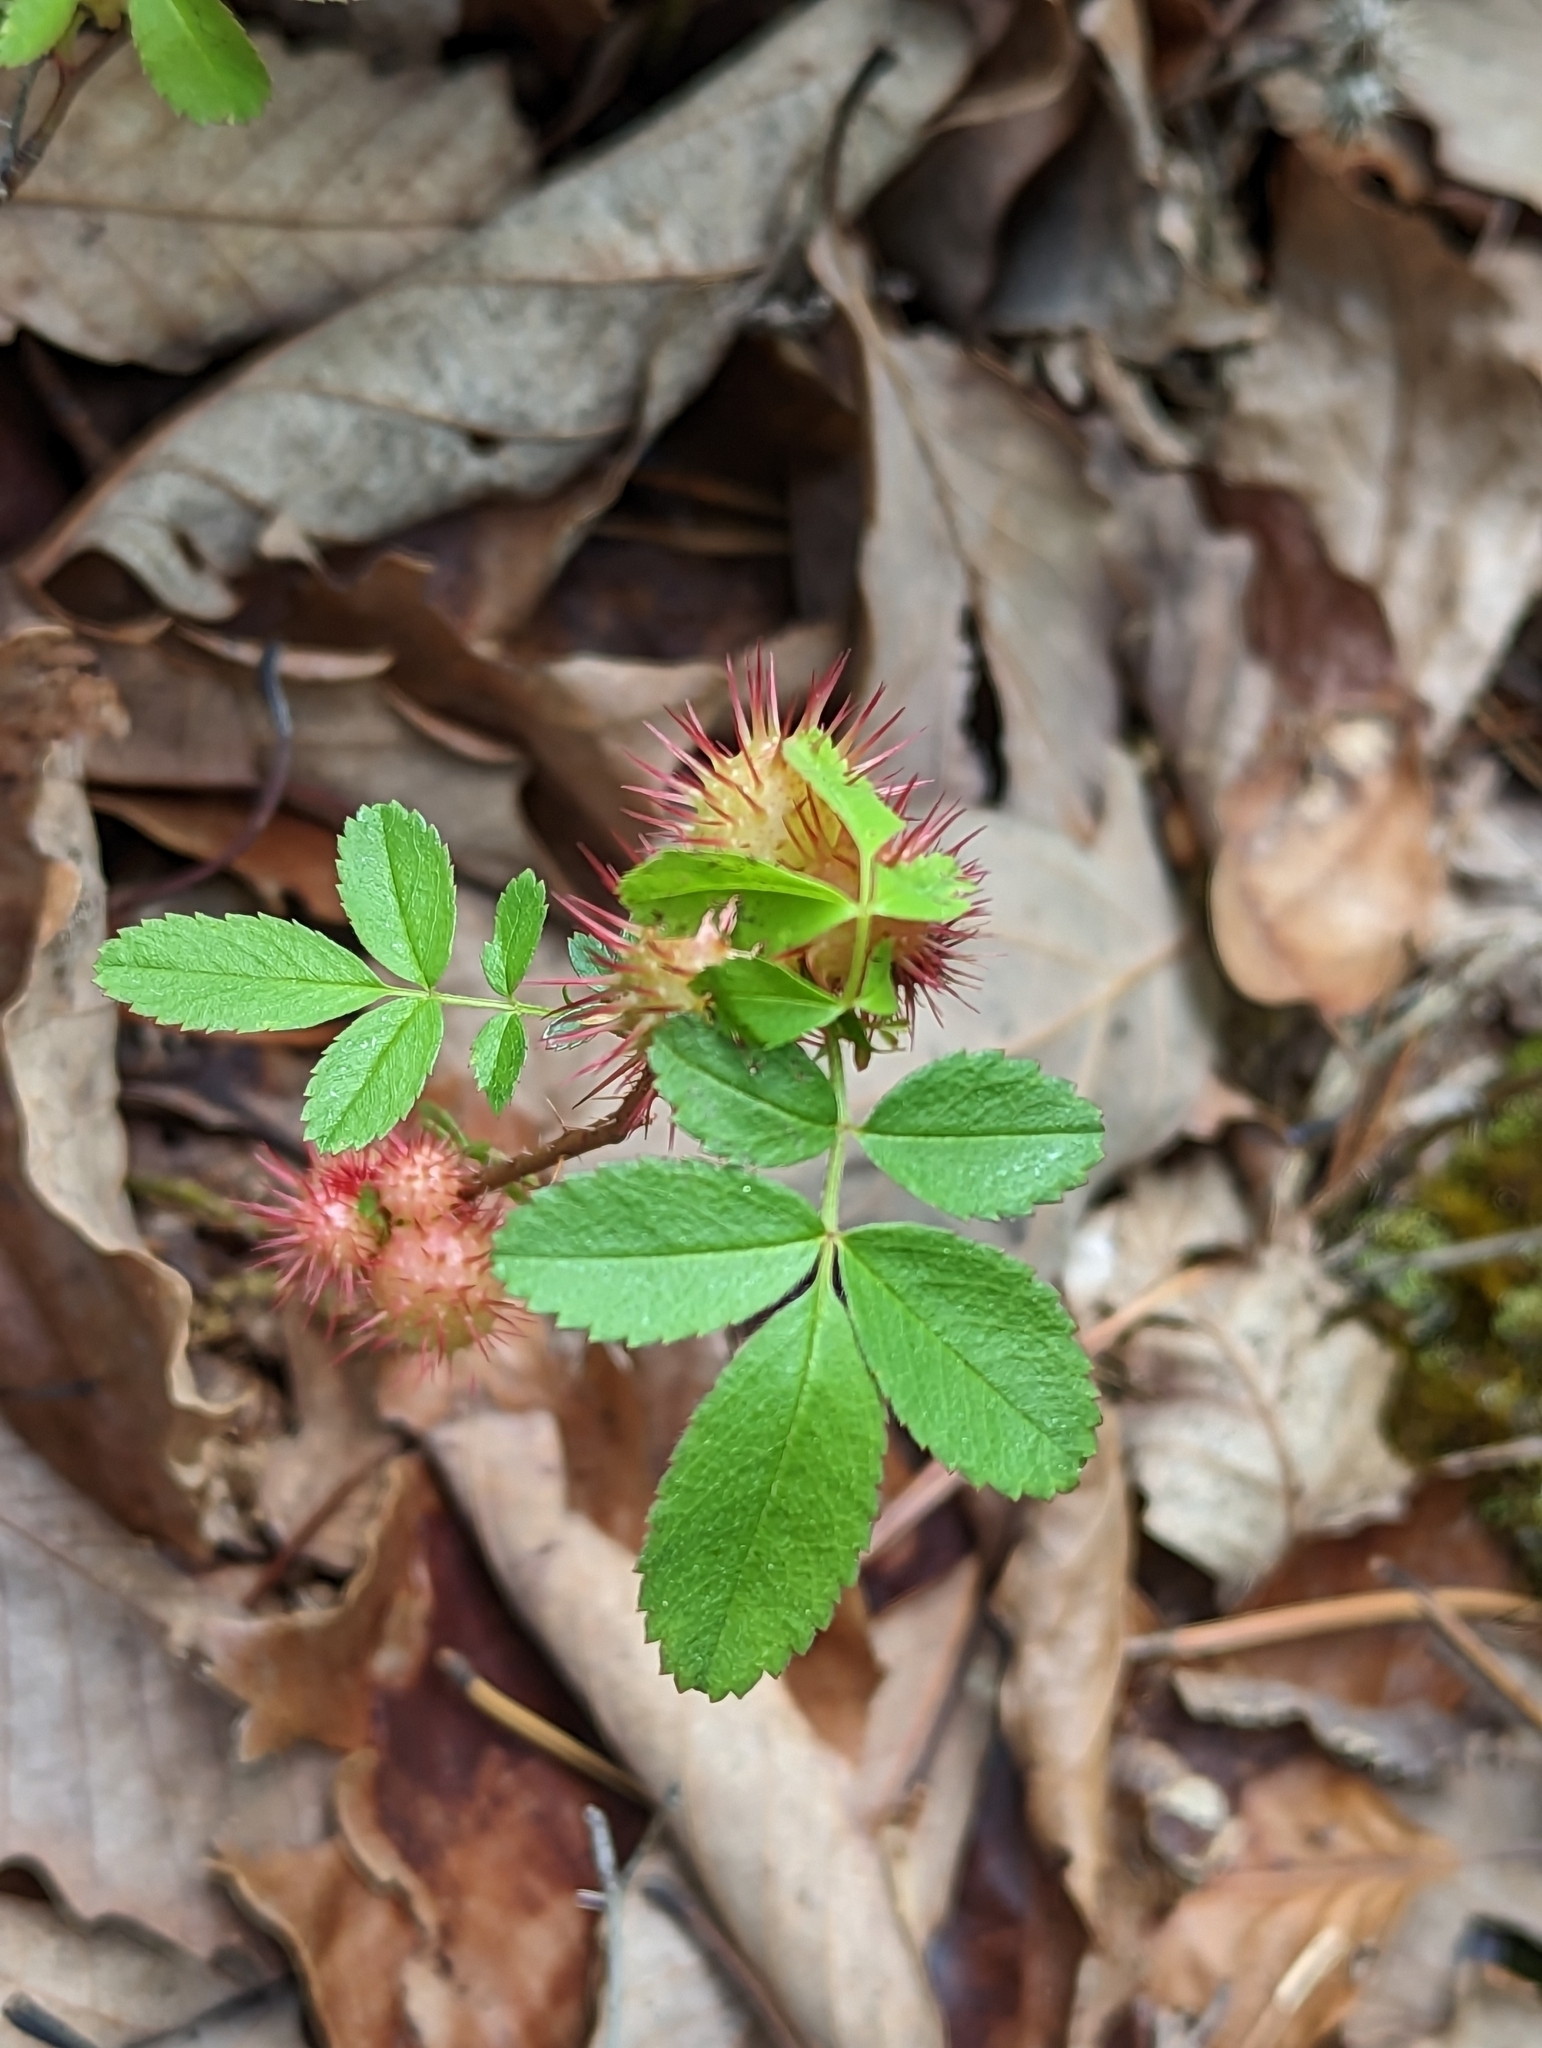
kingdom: Animalia
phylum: Arthropoda
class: Insecta
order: Hymenoptera
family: Cynipidae
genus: Diplolepis
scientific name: Diplolepis polita
